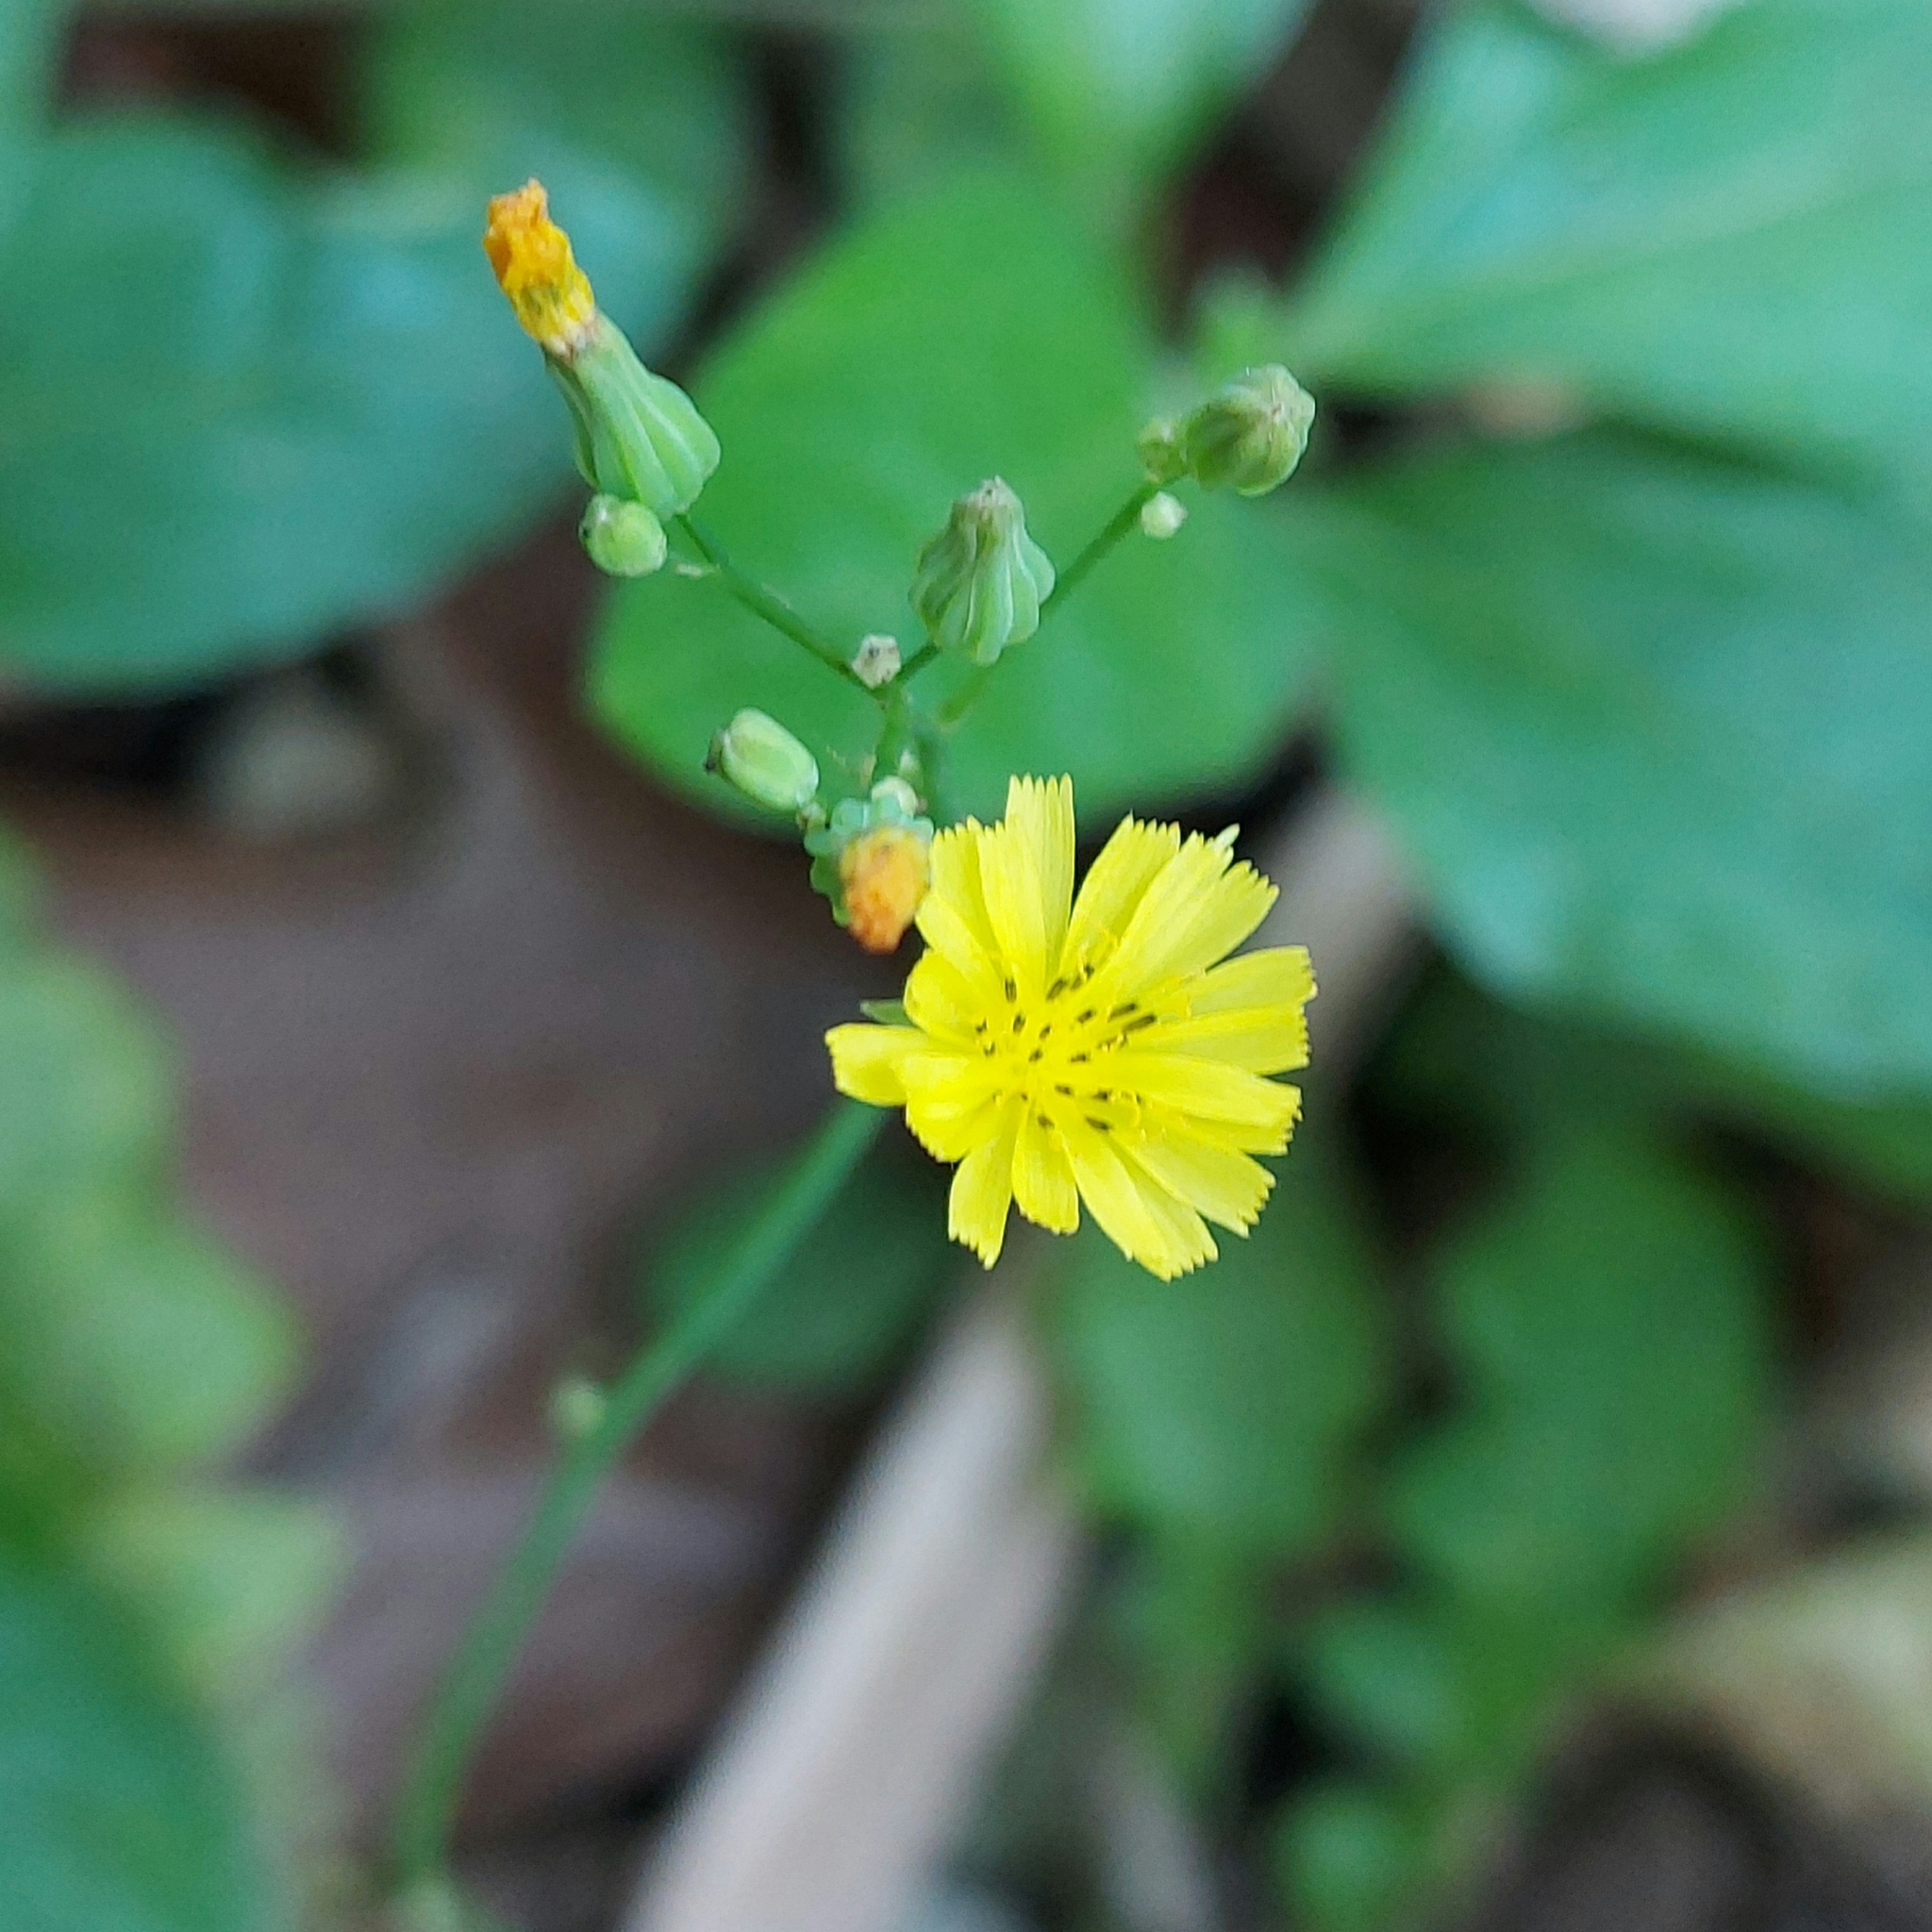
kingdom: Plantae
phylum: Tracheophyta
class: Magnoliopsida
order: Asterales
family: Asteraceae
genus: Youngia
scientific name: Youngia japonica
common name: Oriental false hawksbeard
